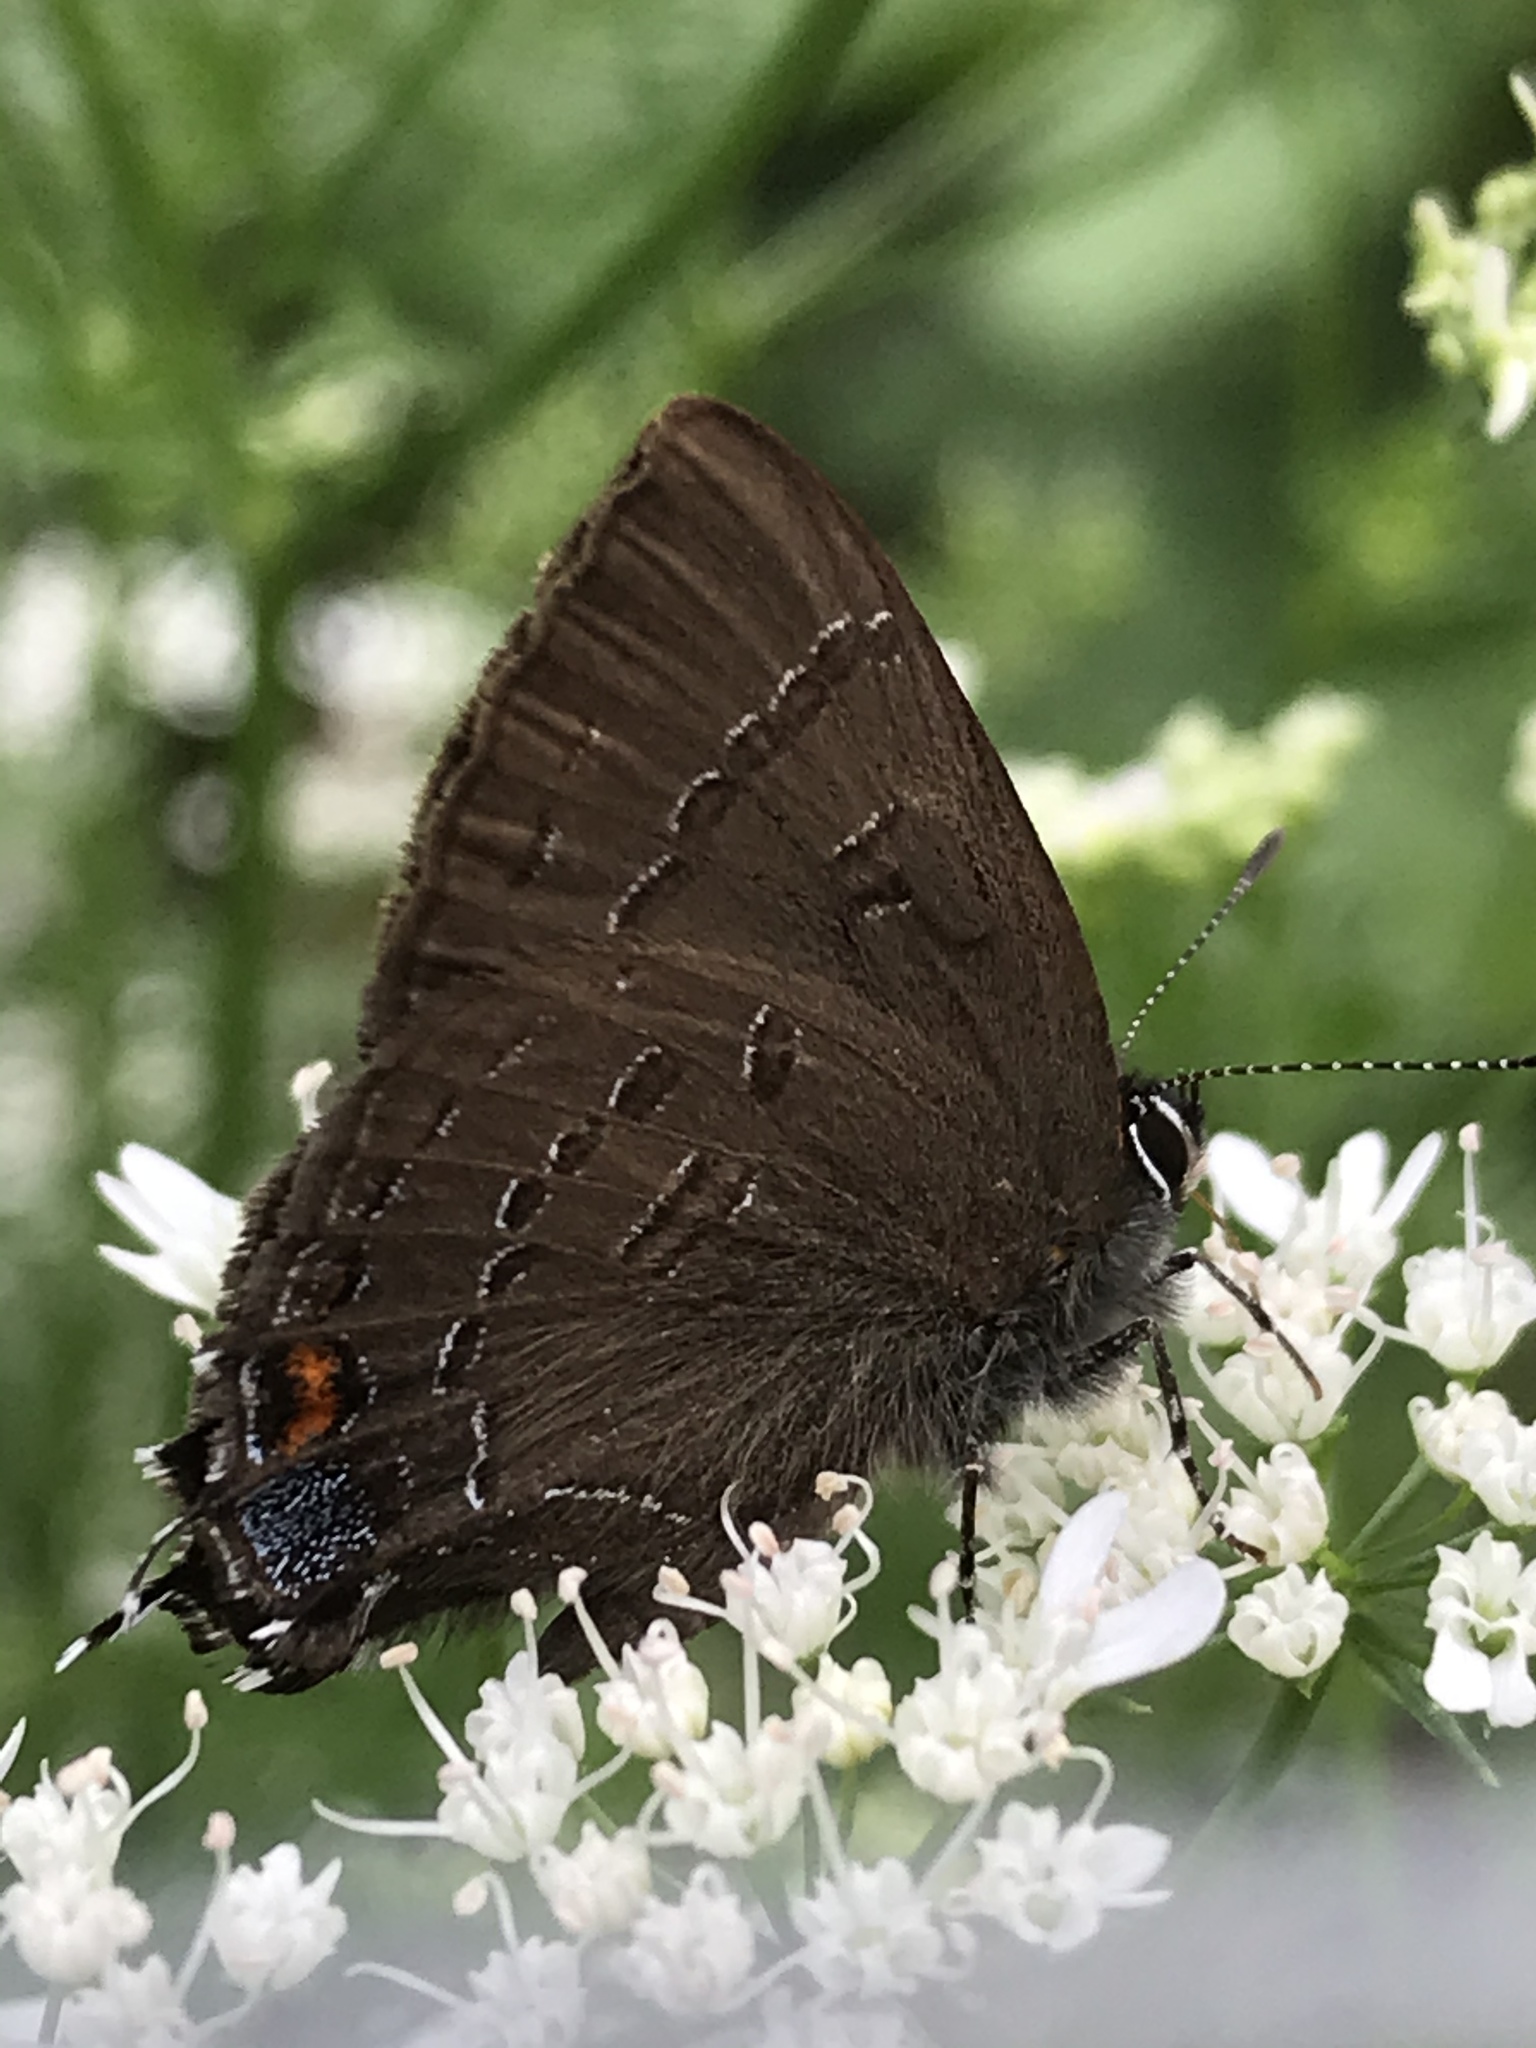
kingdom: Animalia
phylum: Arthropoda
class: Insecta
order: Lepidoptera
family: Lycaenidae
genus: Satyrium
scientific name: Satyrium calanus
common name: Banded hairstreak
